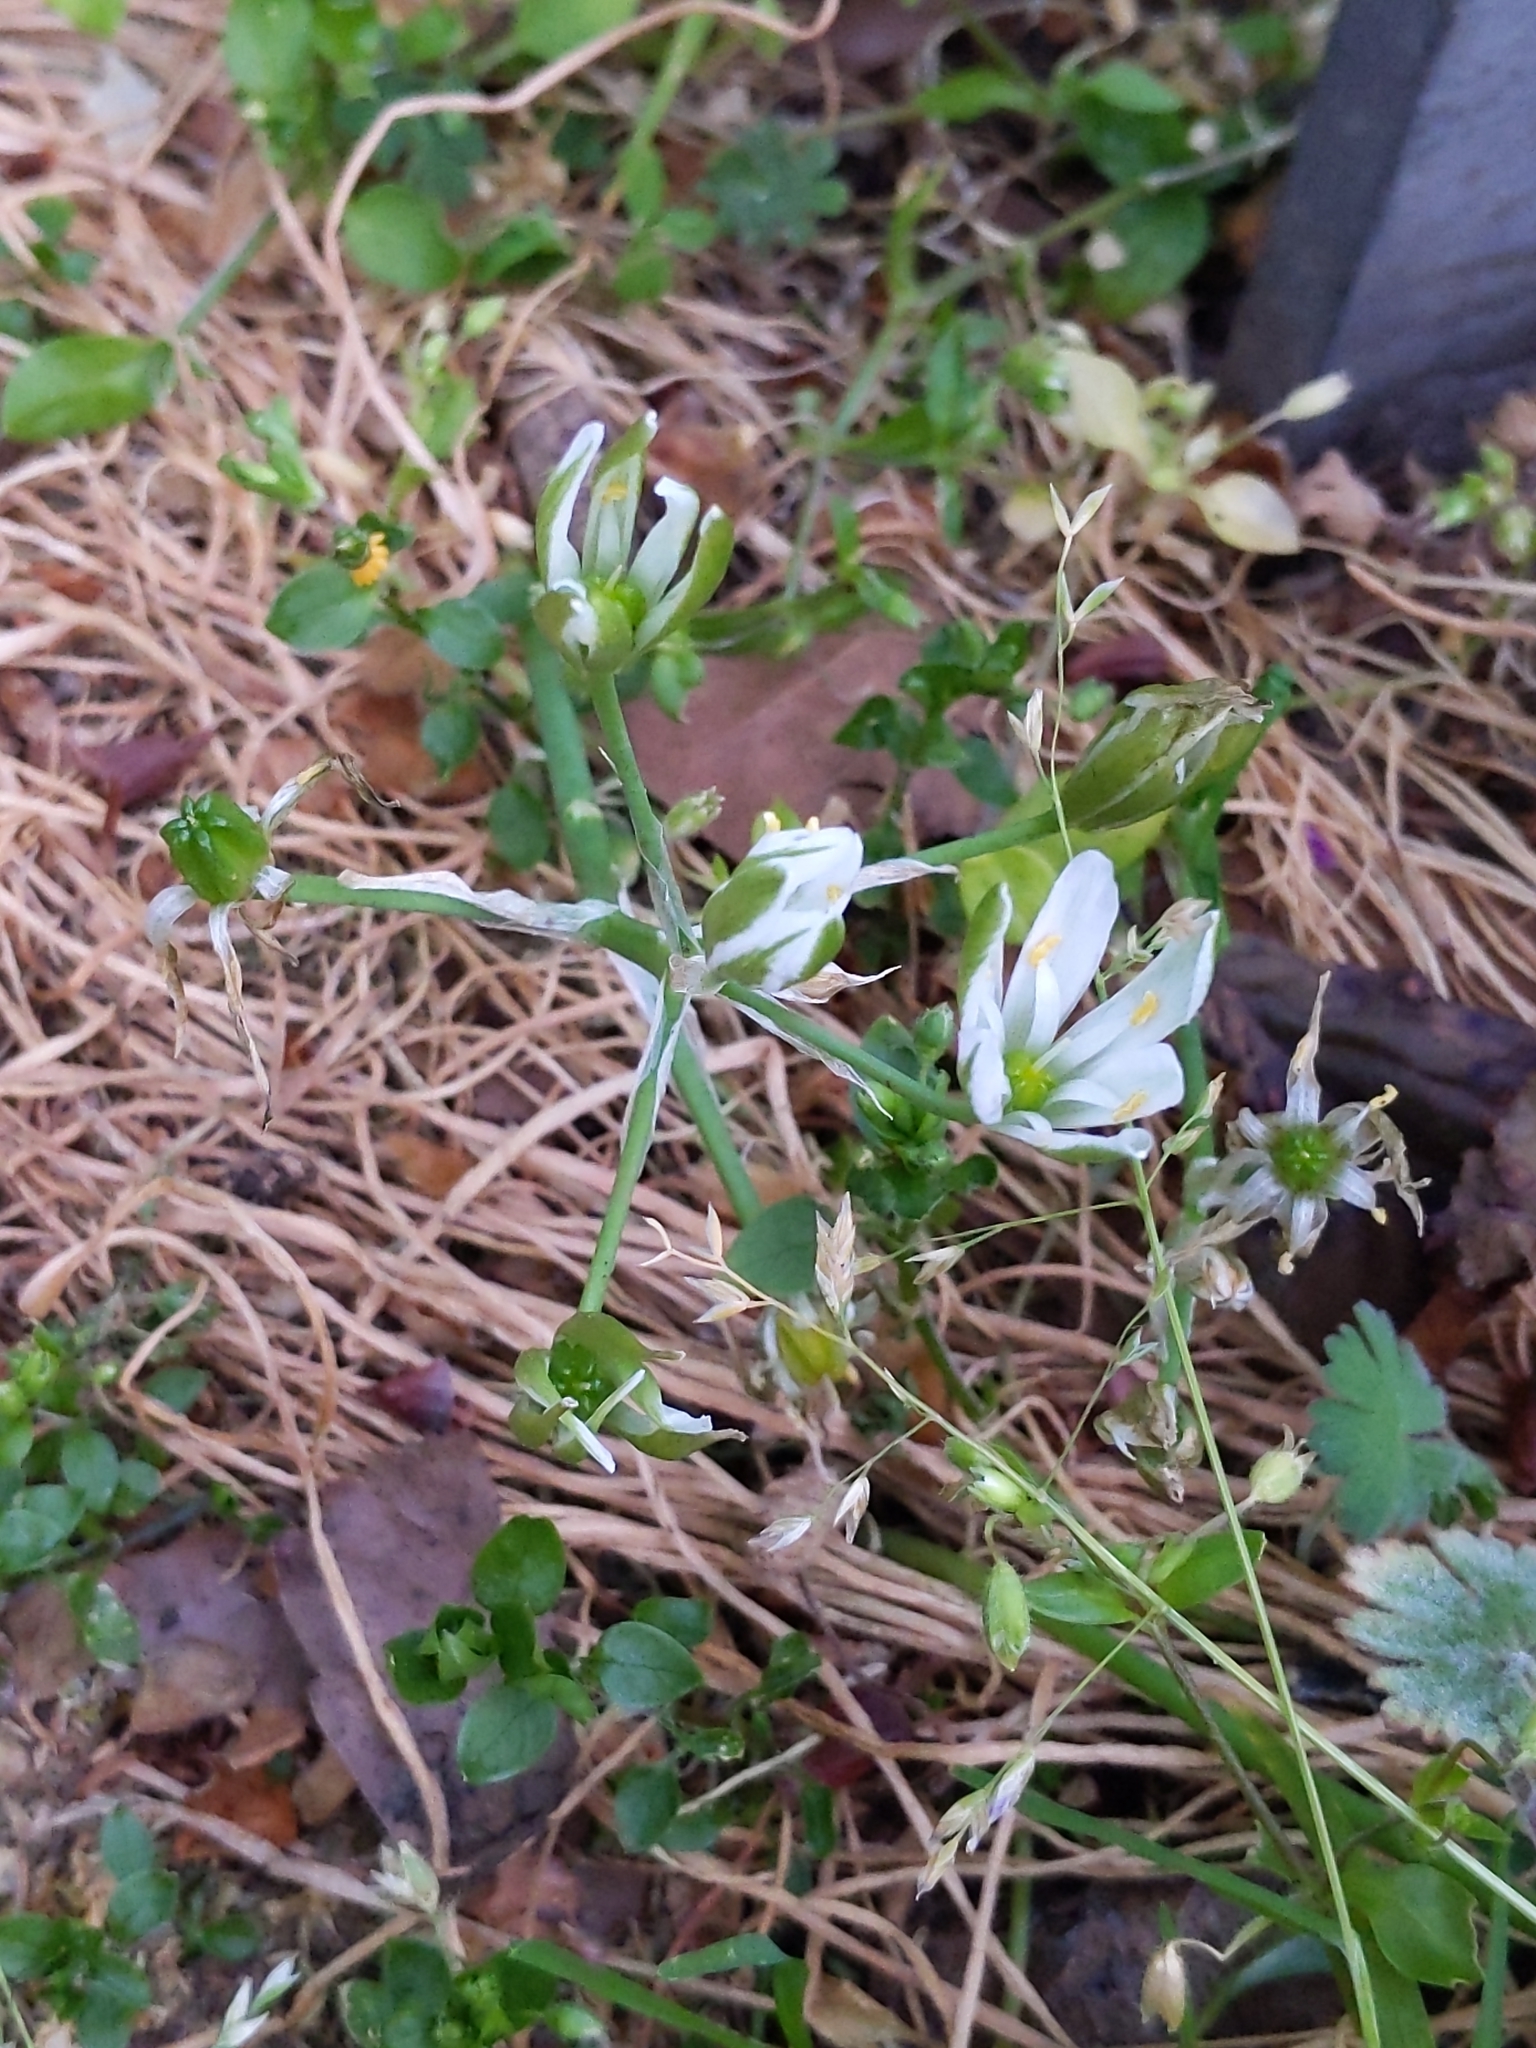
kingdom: Plantae
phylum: Tracheophyta
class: Liliopsida
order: Asparagales
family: Asparagaceae
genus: Ornithogalum
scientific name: Ornithogalum umbellatum
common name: Garden star-of-bethlehem
